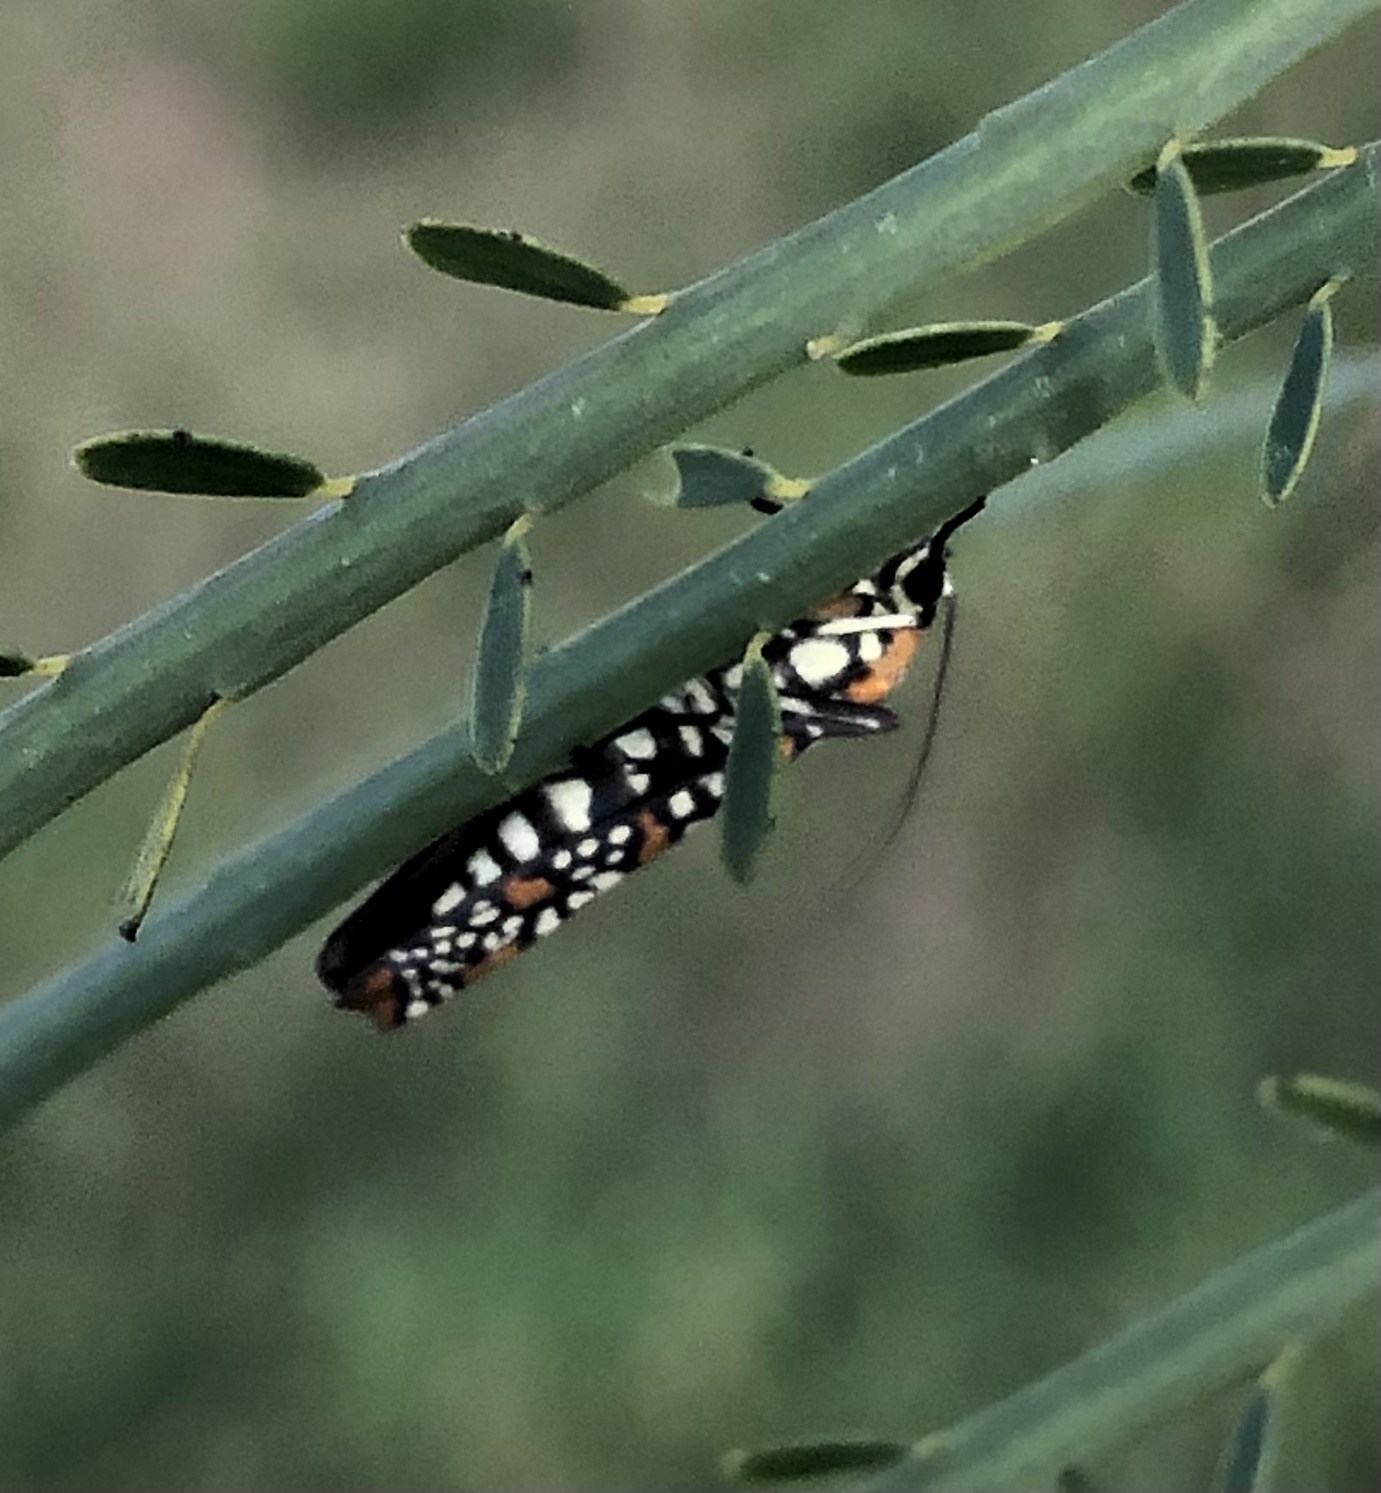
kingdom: Animalia
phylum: Arthropoda
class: Insecta
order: Lepidoptera
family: Attevidae
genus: Atteva
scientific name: Atteva punctella
